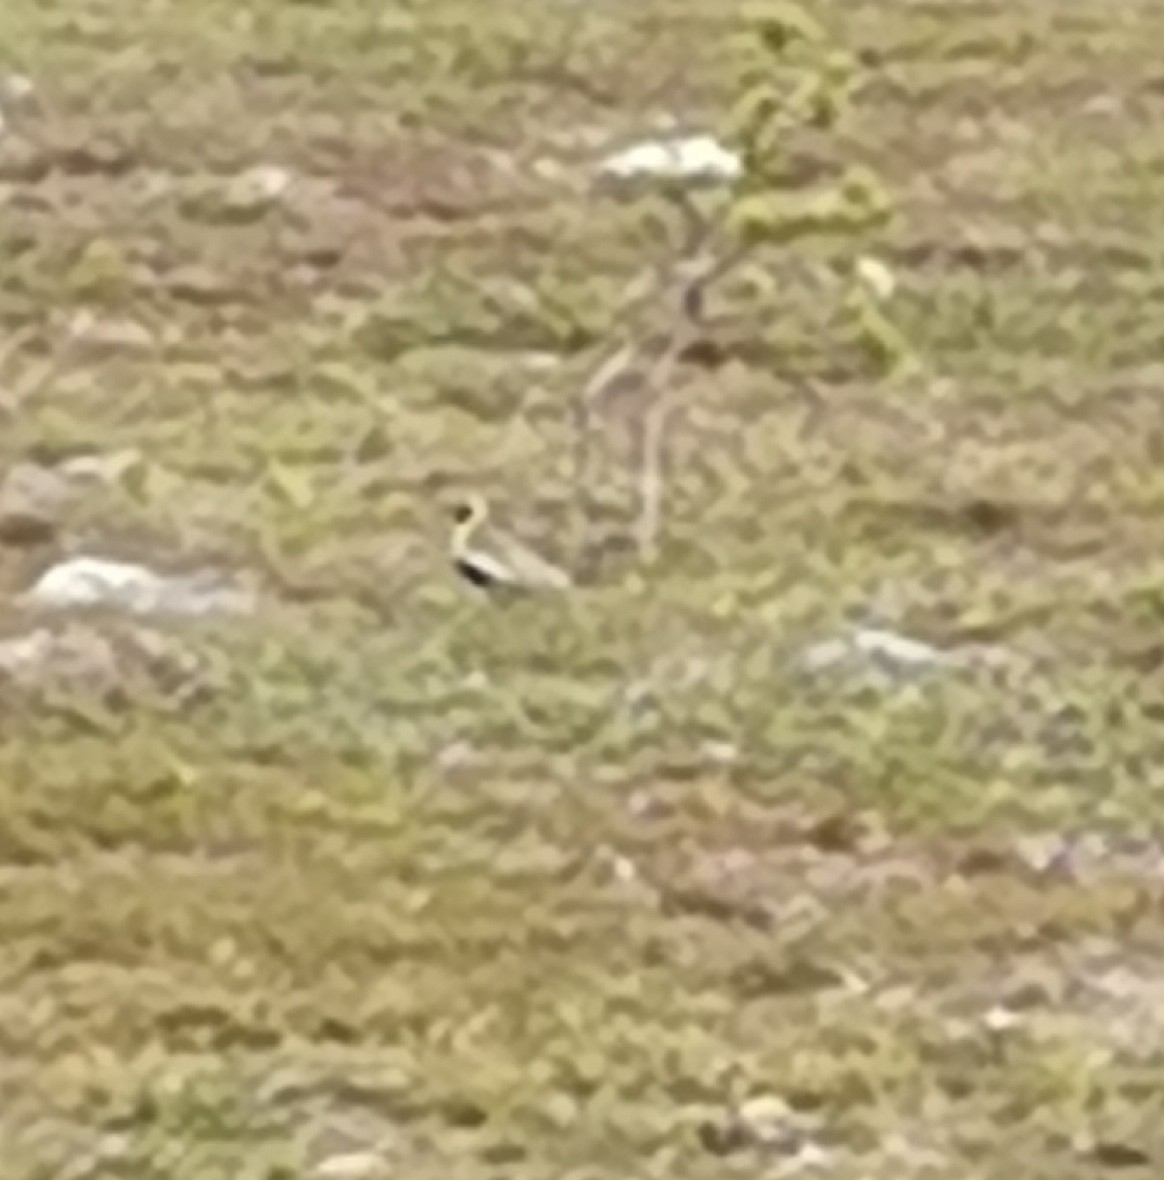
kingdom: Animalia
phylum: Chordata
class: Aves
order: Charadriiformes
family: Charadriidae
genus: Pluvialis
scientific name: Pluvialis apricaria
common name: European golden plover
